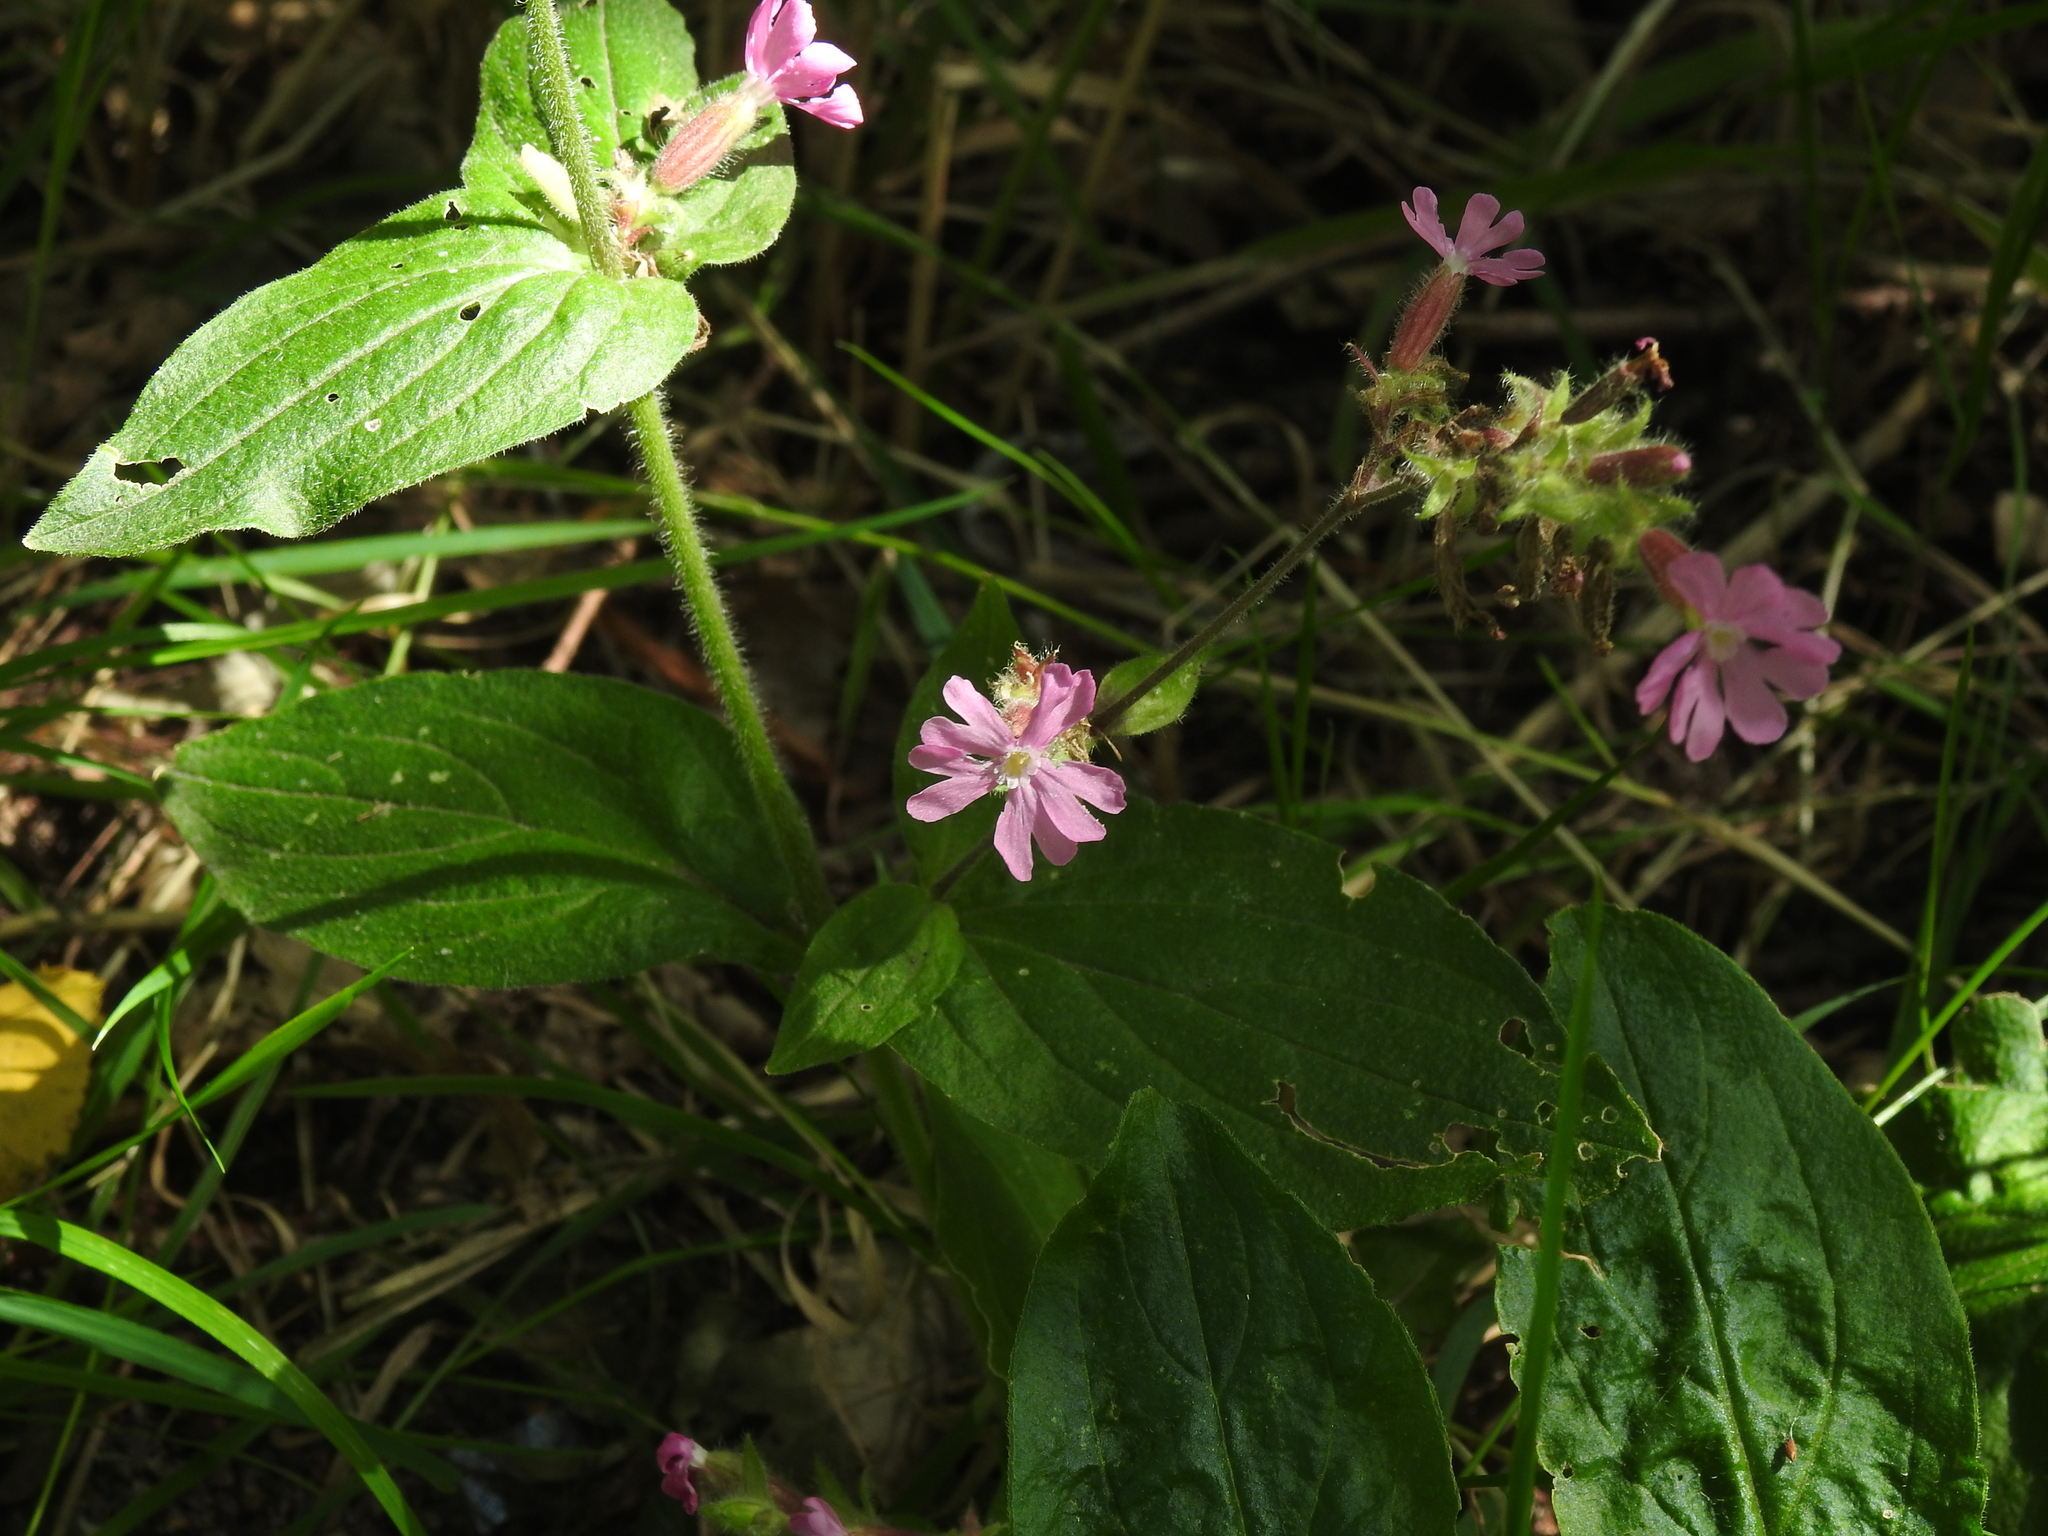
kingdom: Plantae
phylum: Tracheophyta
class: Magnoliopsida
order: Caryophyllales
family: Caryophyllaceae
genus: Silene
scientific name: Silene dioica
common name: Red campion
